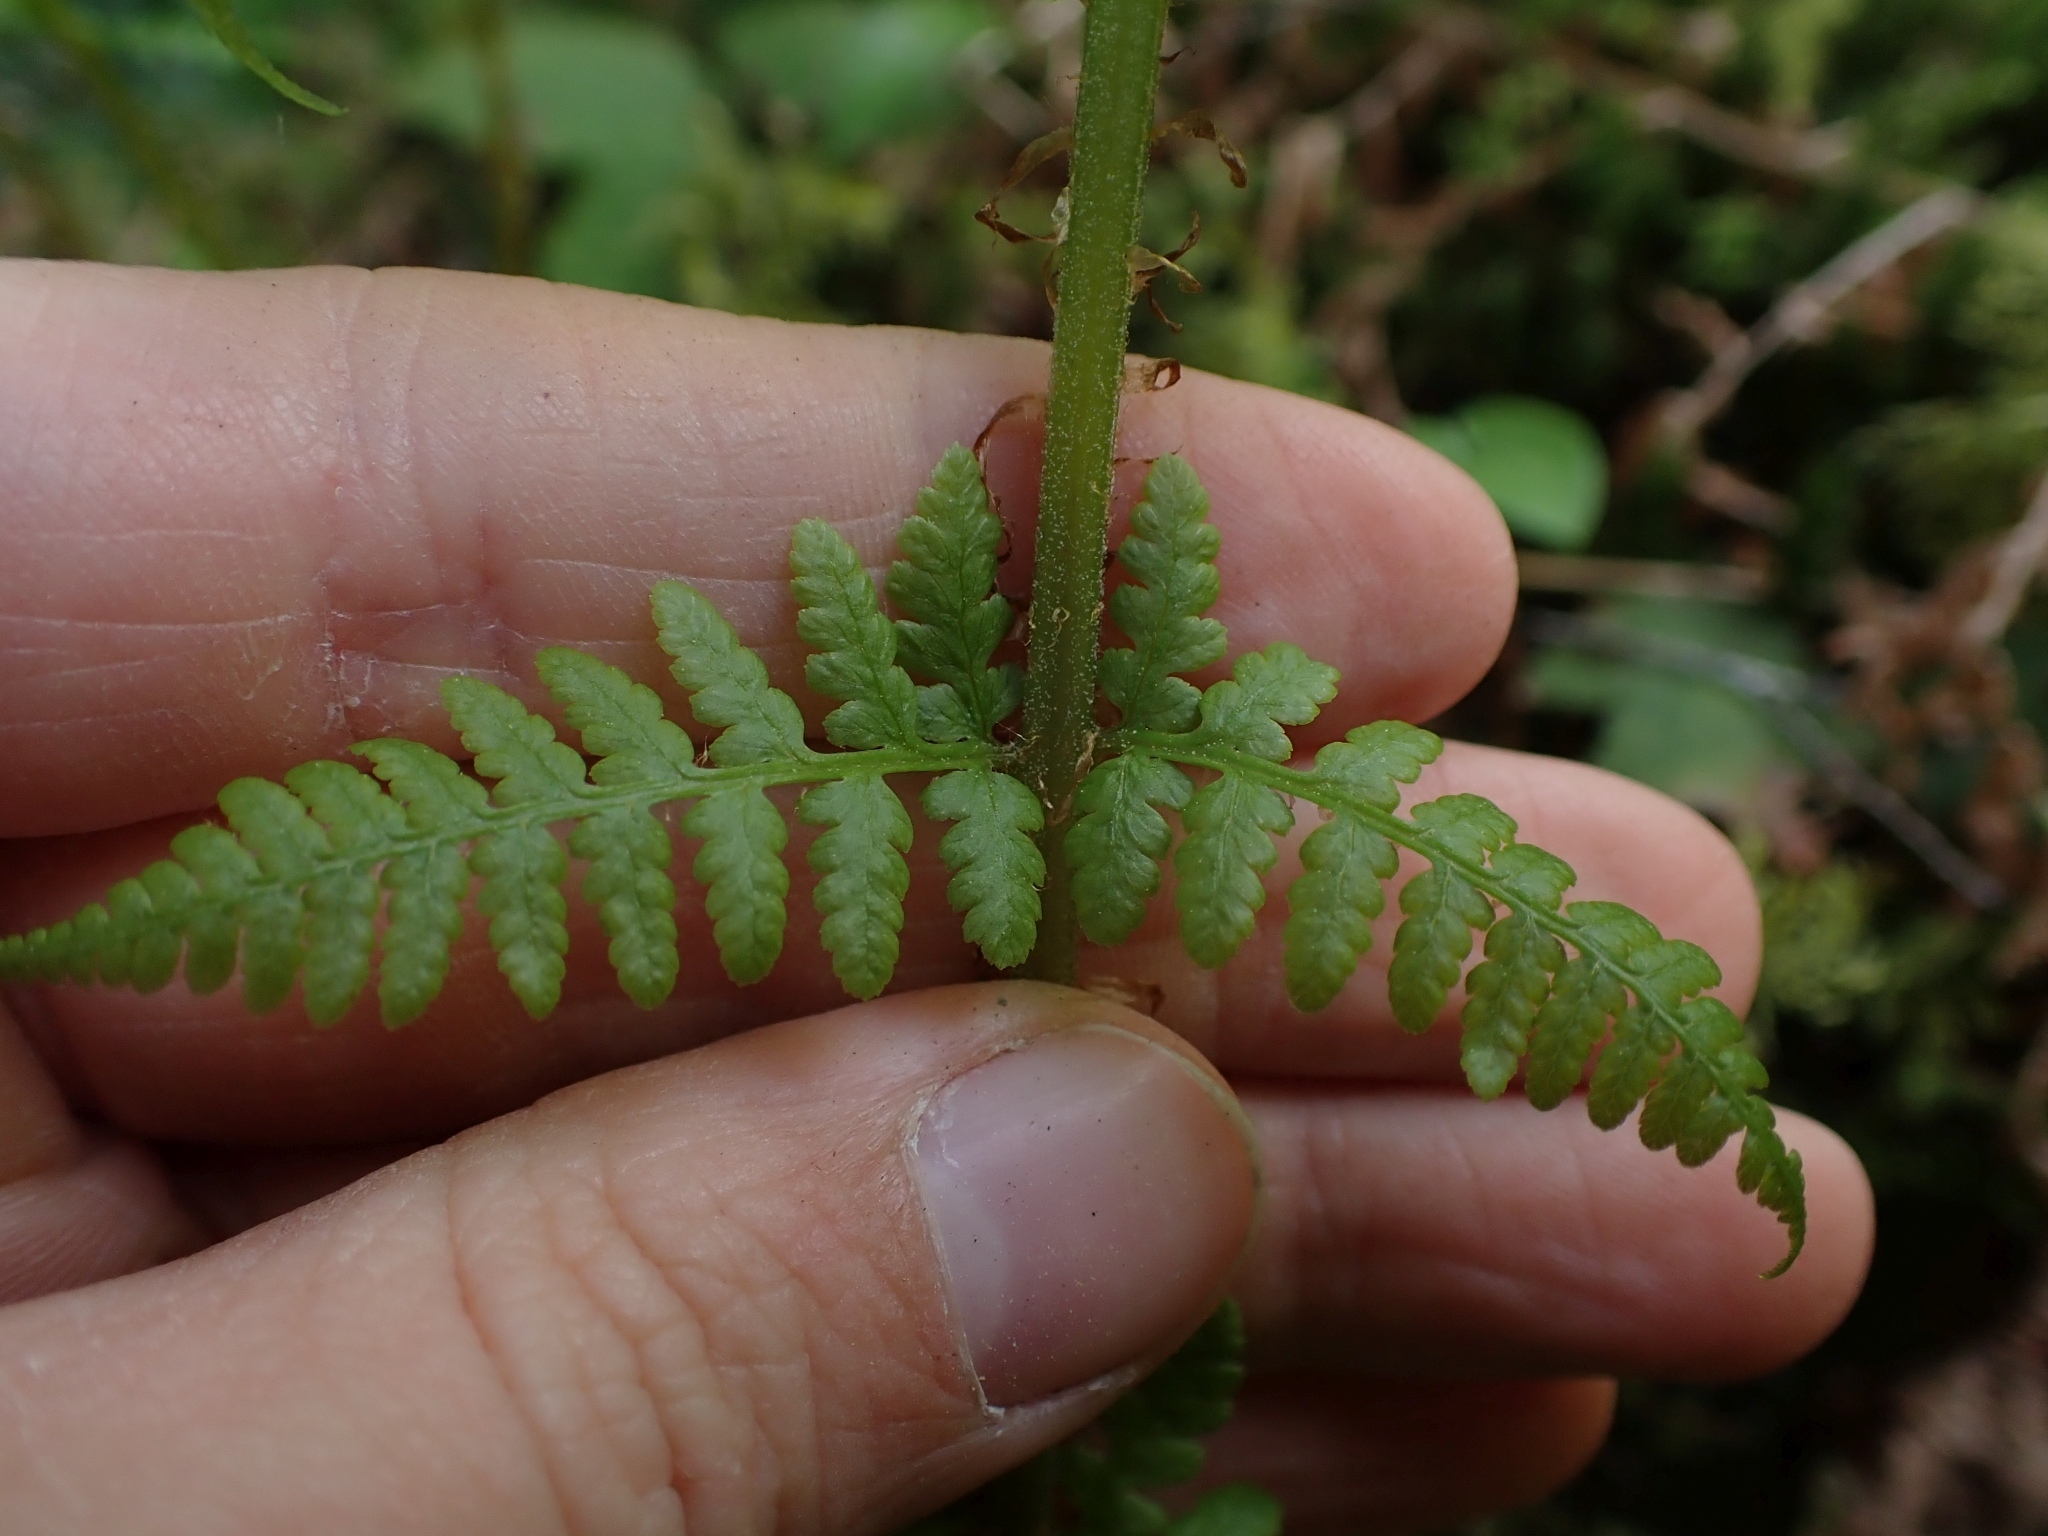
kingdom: Plantae
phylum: Tracheophyta
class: Polypodiopsida
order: Polypodiales
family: Athyriaceae
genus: Athyrium
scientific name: Athyrium filix-femina
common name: Lady fern
